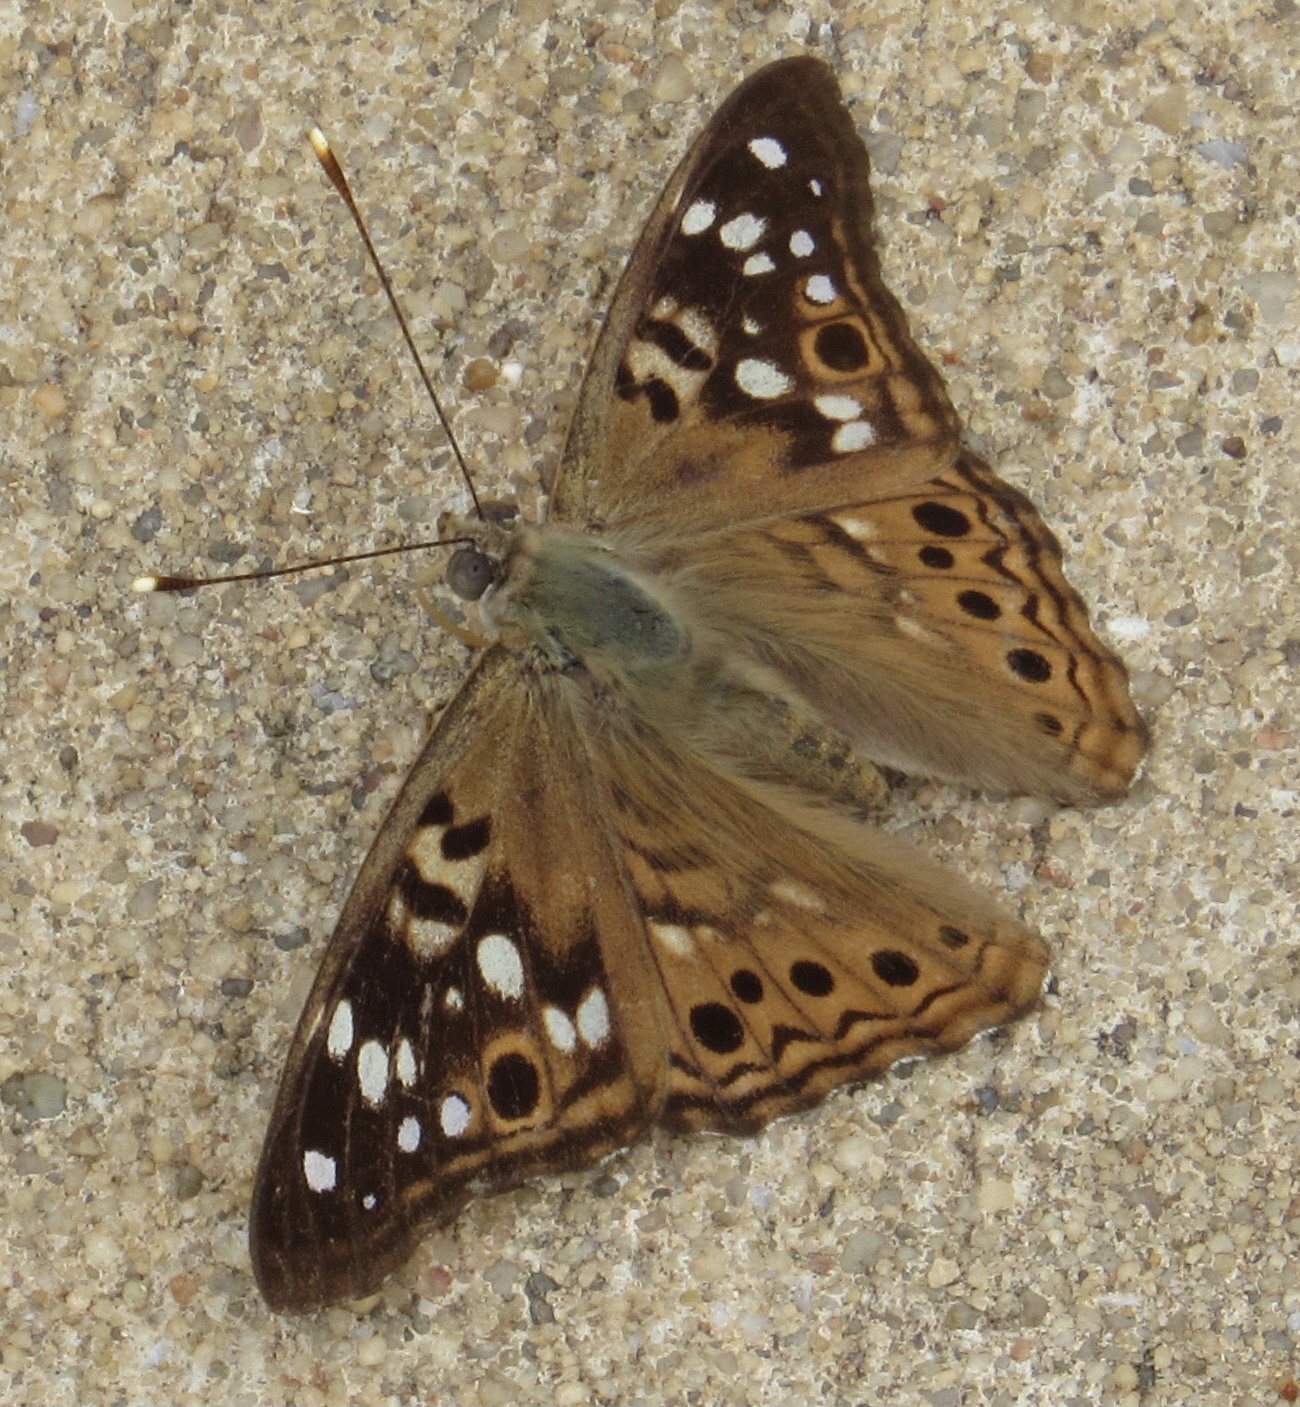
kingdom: Animalia
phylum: Arthropoda
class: Insecta
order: Lepidoptera
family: Nymphalidae
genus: Asterocampa
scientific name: Asterocampa celtis
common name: Hackberry emperor
